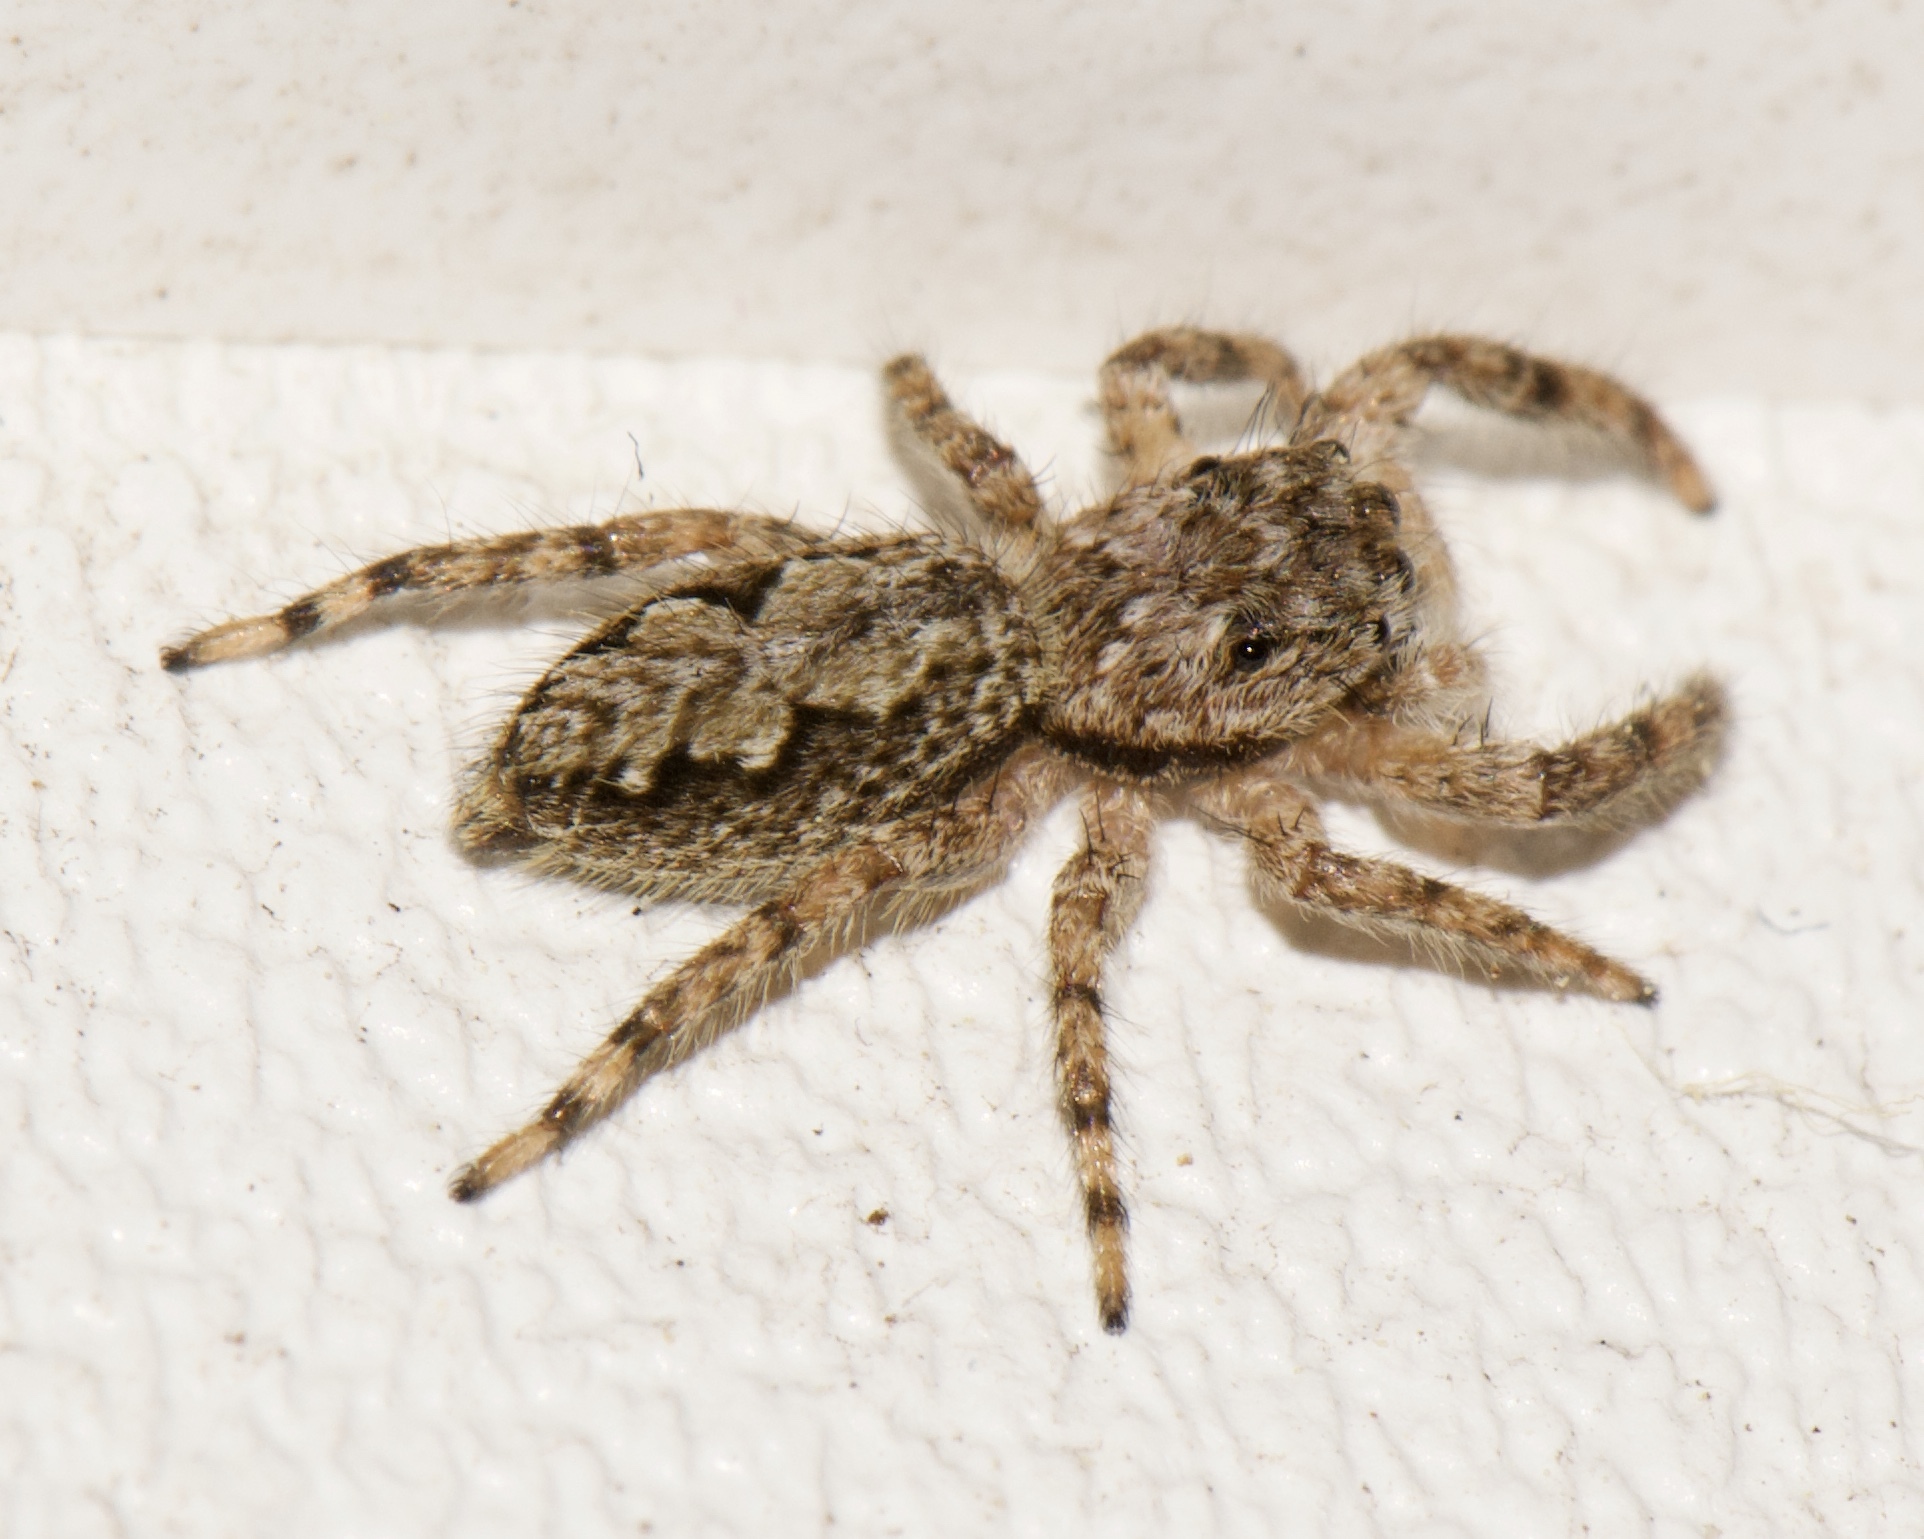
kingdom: Animalia
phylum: Arthropoda
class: Arachnida
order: Araneae
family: Salticidae
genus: Platycryptus
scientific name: Platycryptus undatus
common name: Tan jumping spider
